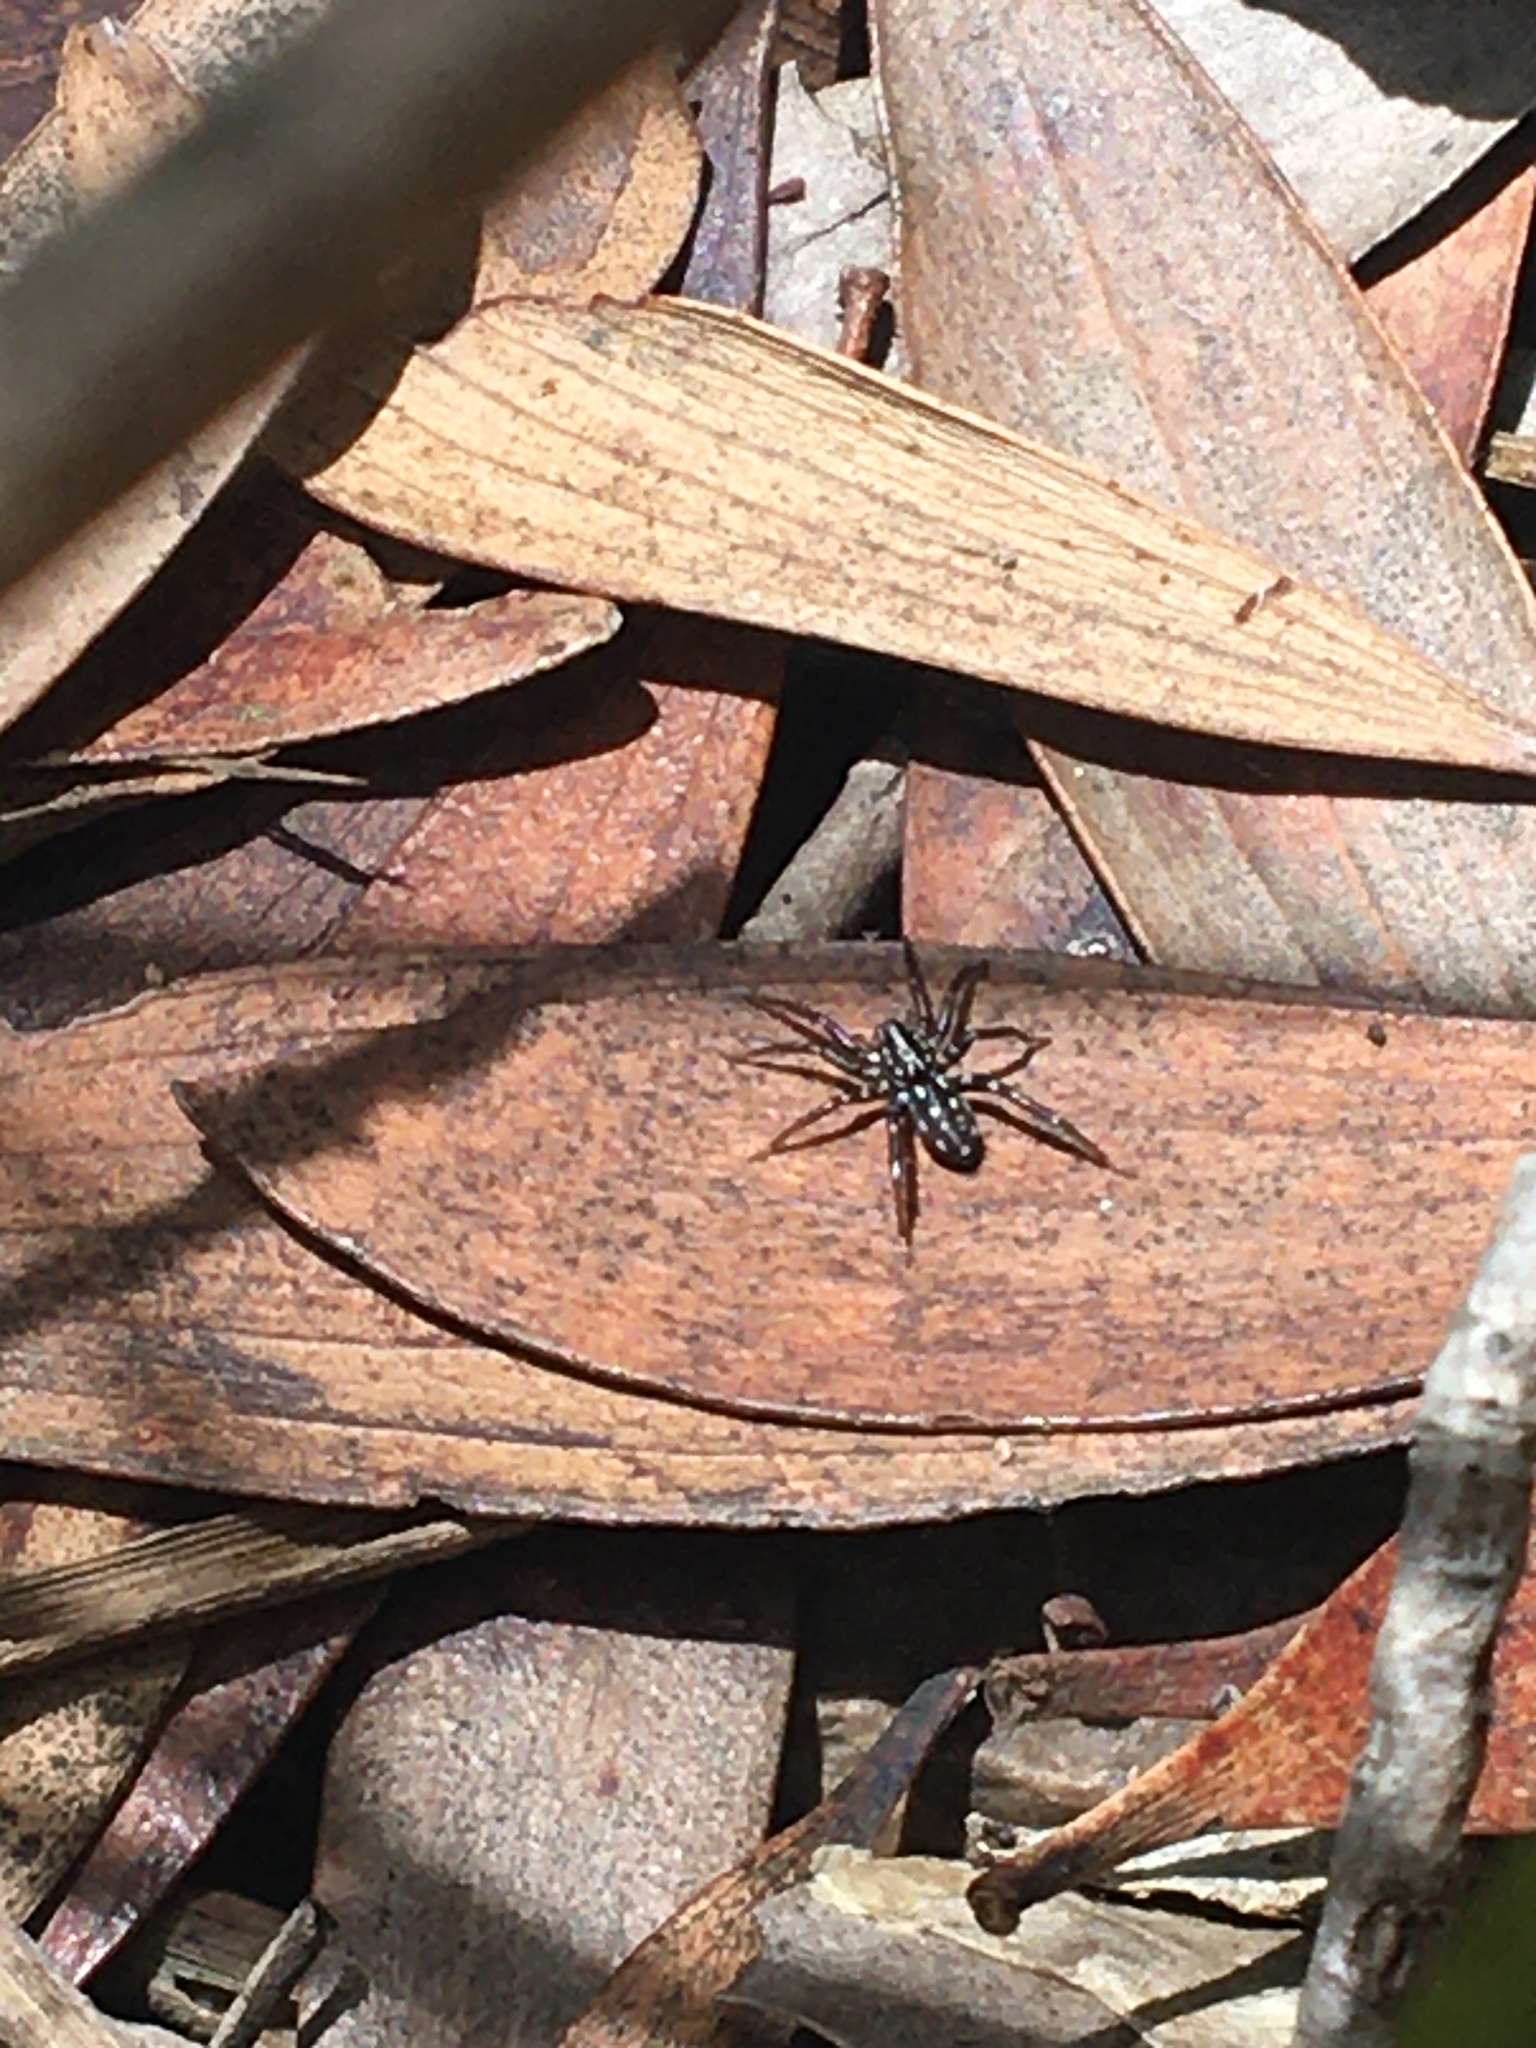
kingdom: Animalia
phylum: Arthropoda
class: Arachnida
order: Araneae
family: Corinnidae
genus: Nyssus
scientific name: Nyssus albopunctatus
